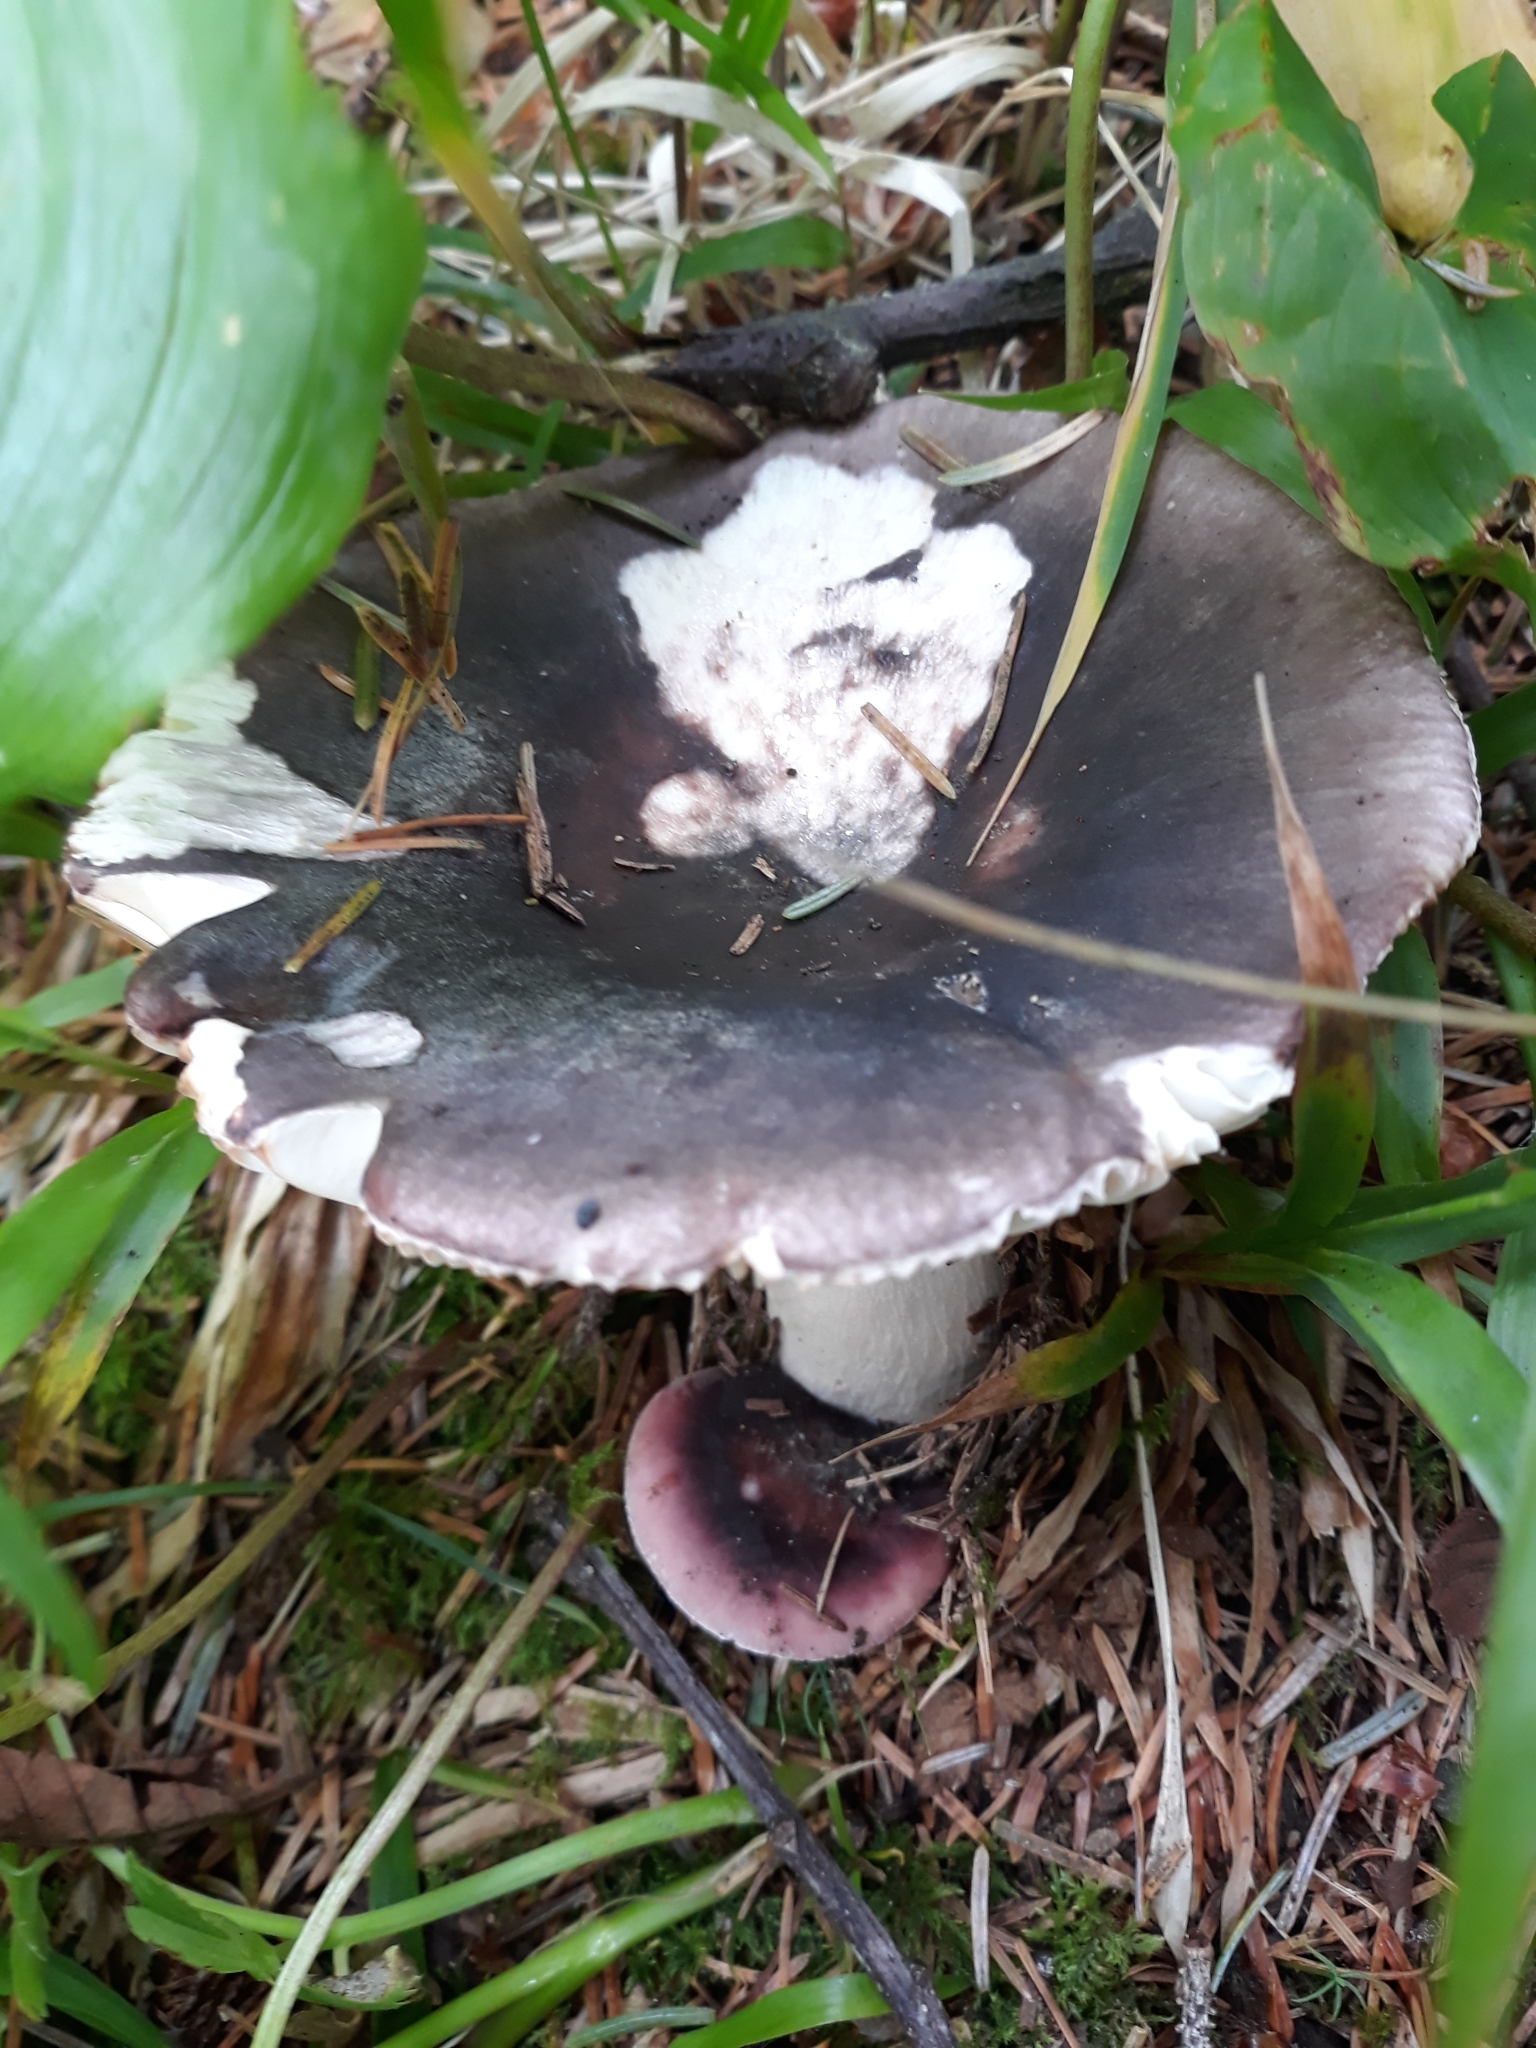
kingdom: Fungi
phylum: Basidiomycota
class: Agaricomycetes
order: Russulales
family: Russulaceae
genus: Russula
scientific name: Russula xerampelina
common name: Crab brittlegill
